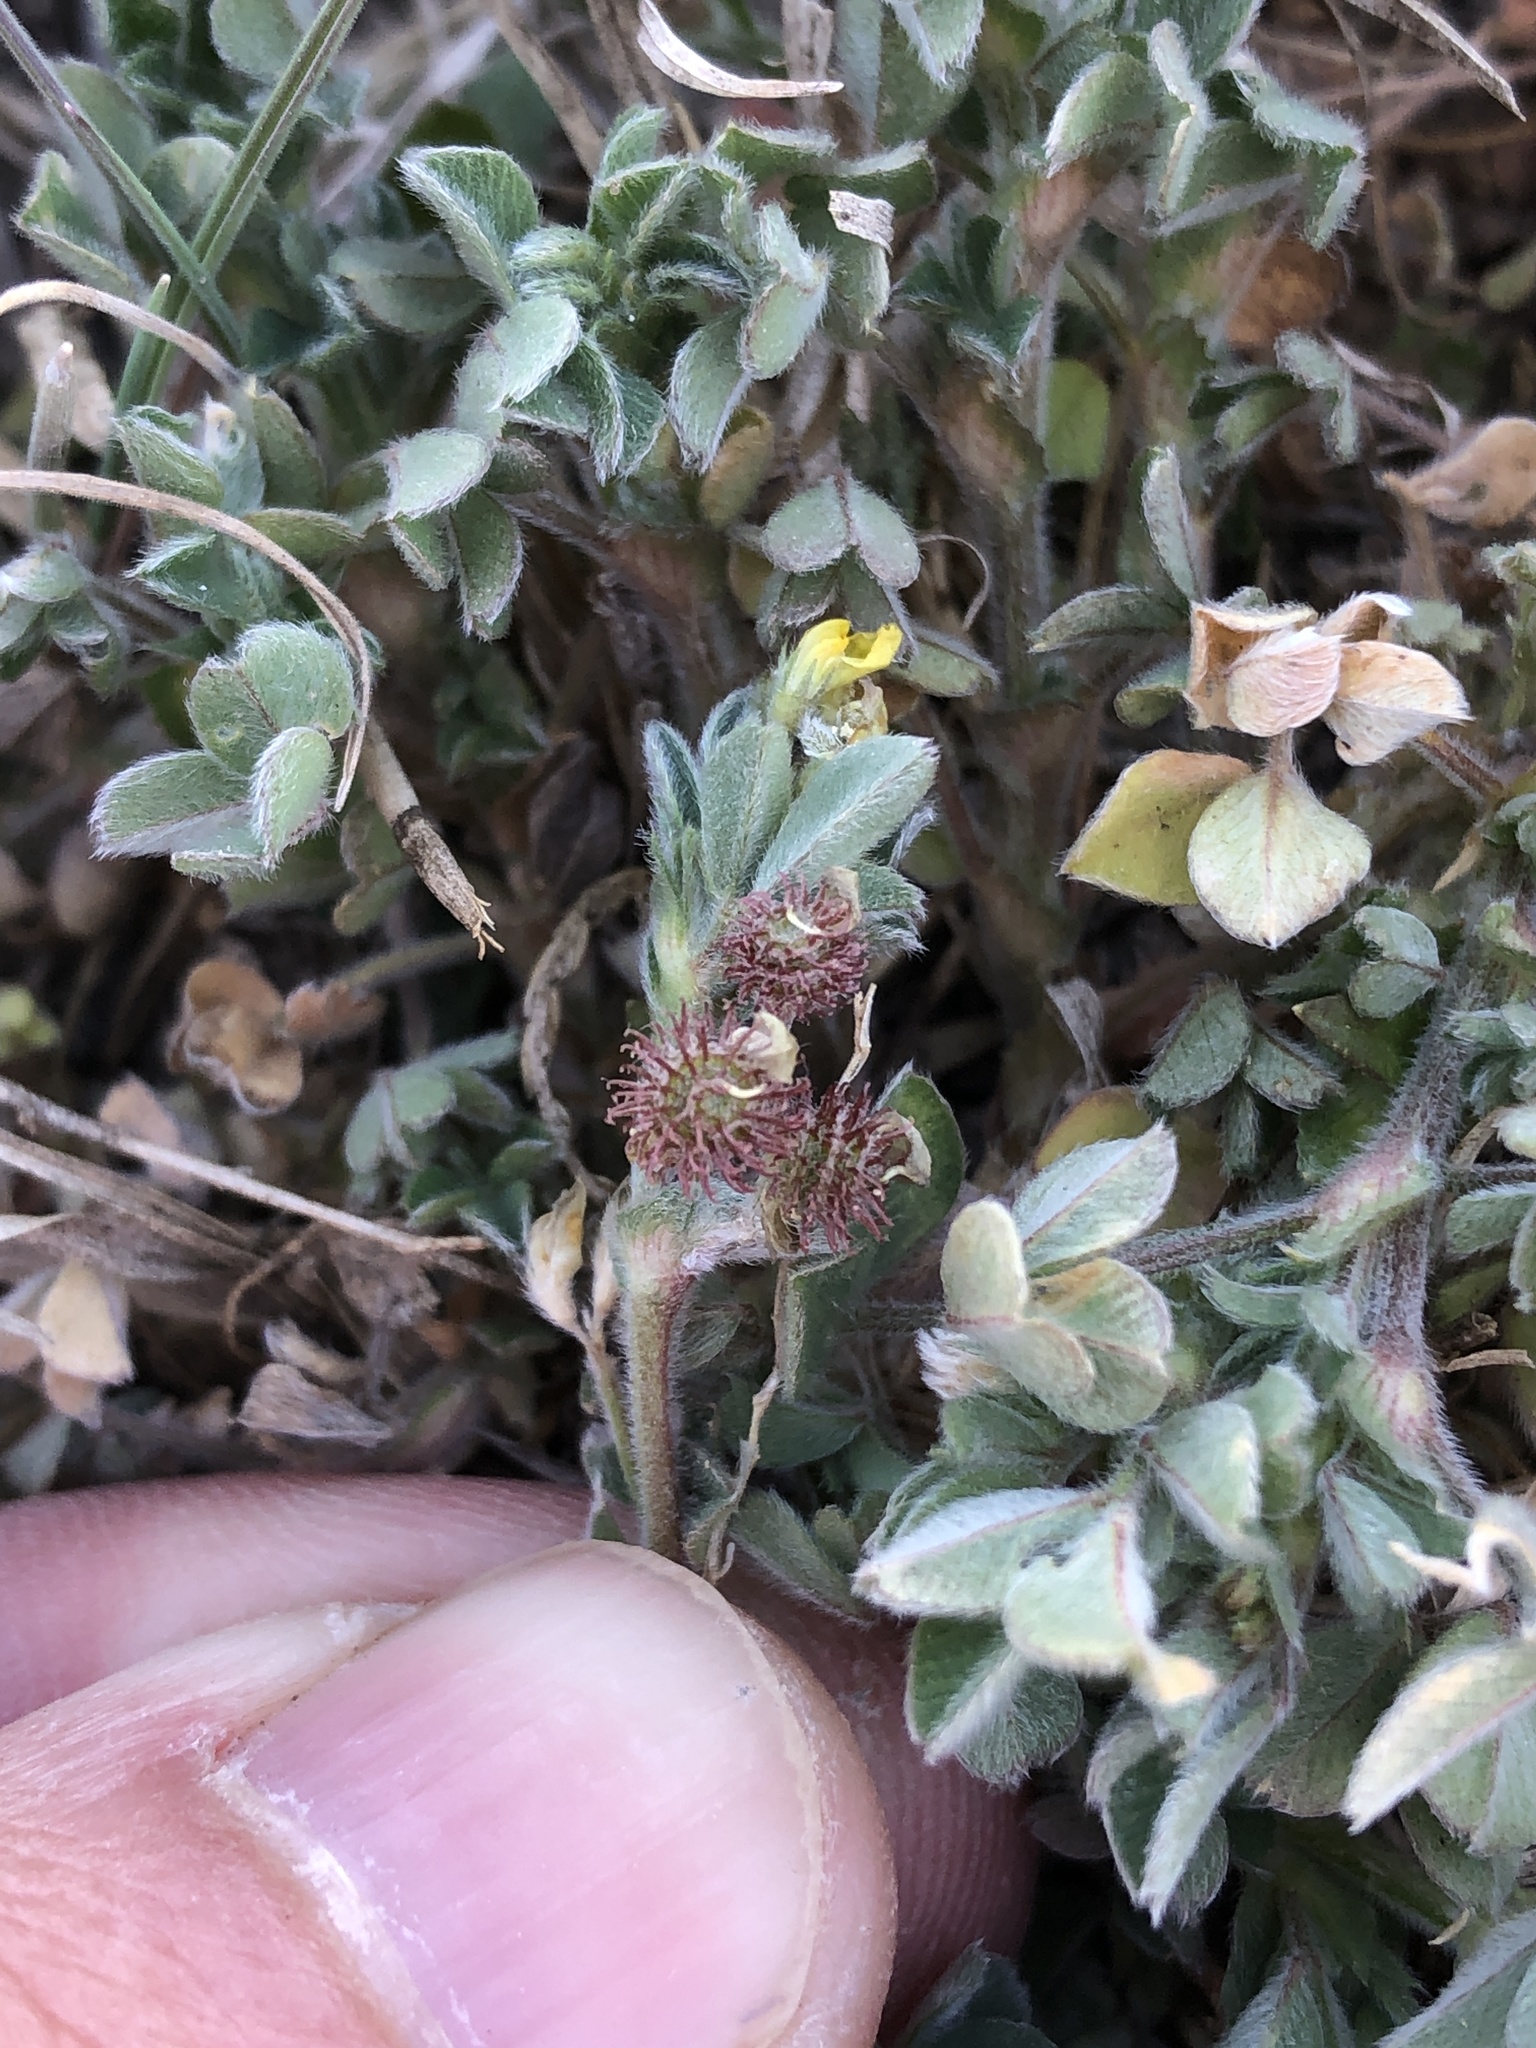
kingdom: Plantae
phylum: Tracheophyta
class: Magnoliopsida
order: Fabales
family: Fabaceae
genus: Medicago
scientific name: Medicago minima
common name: Little bur-clover
